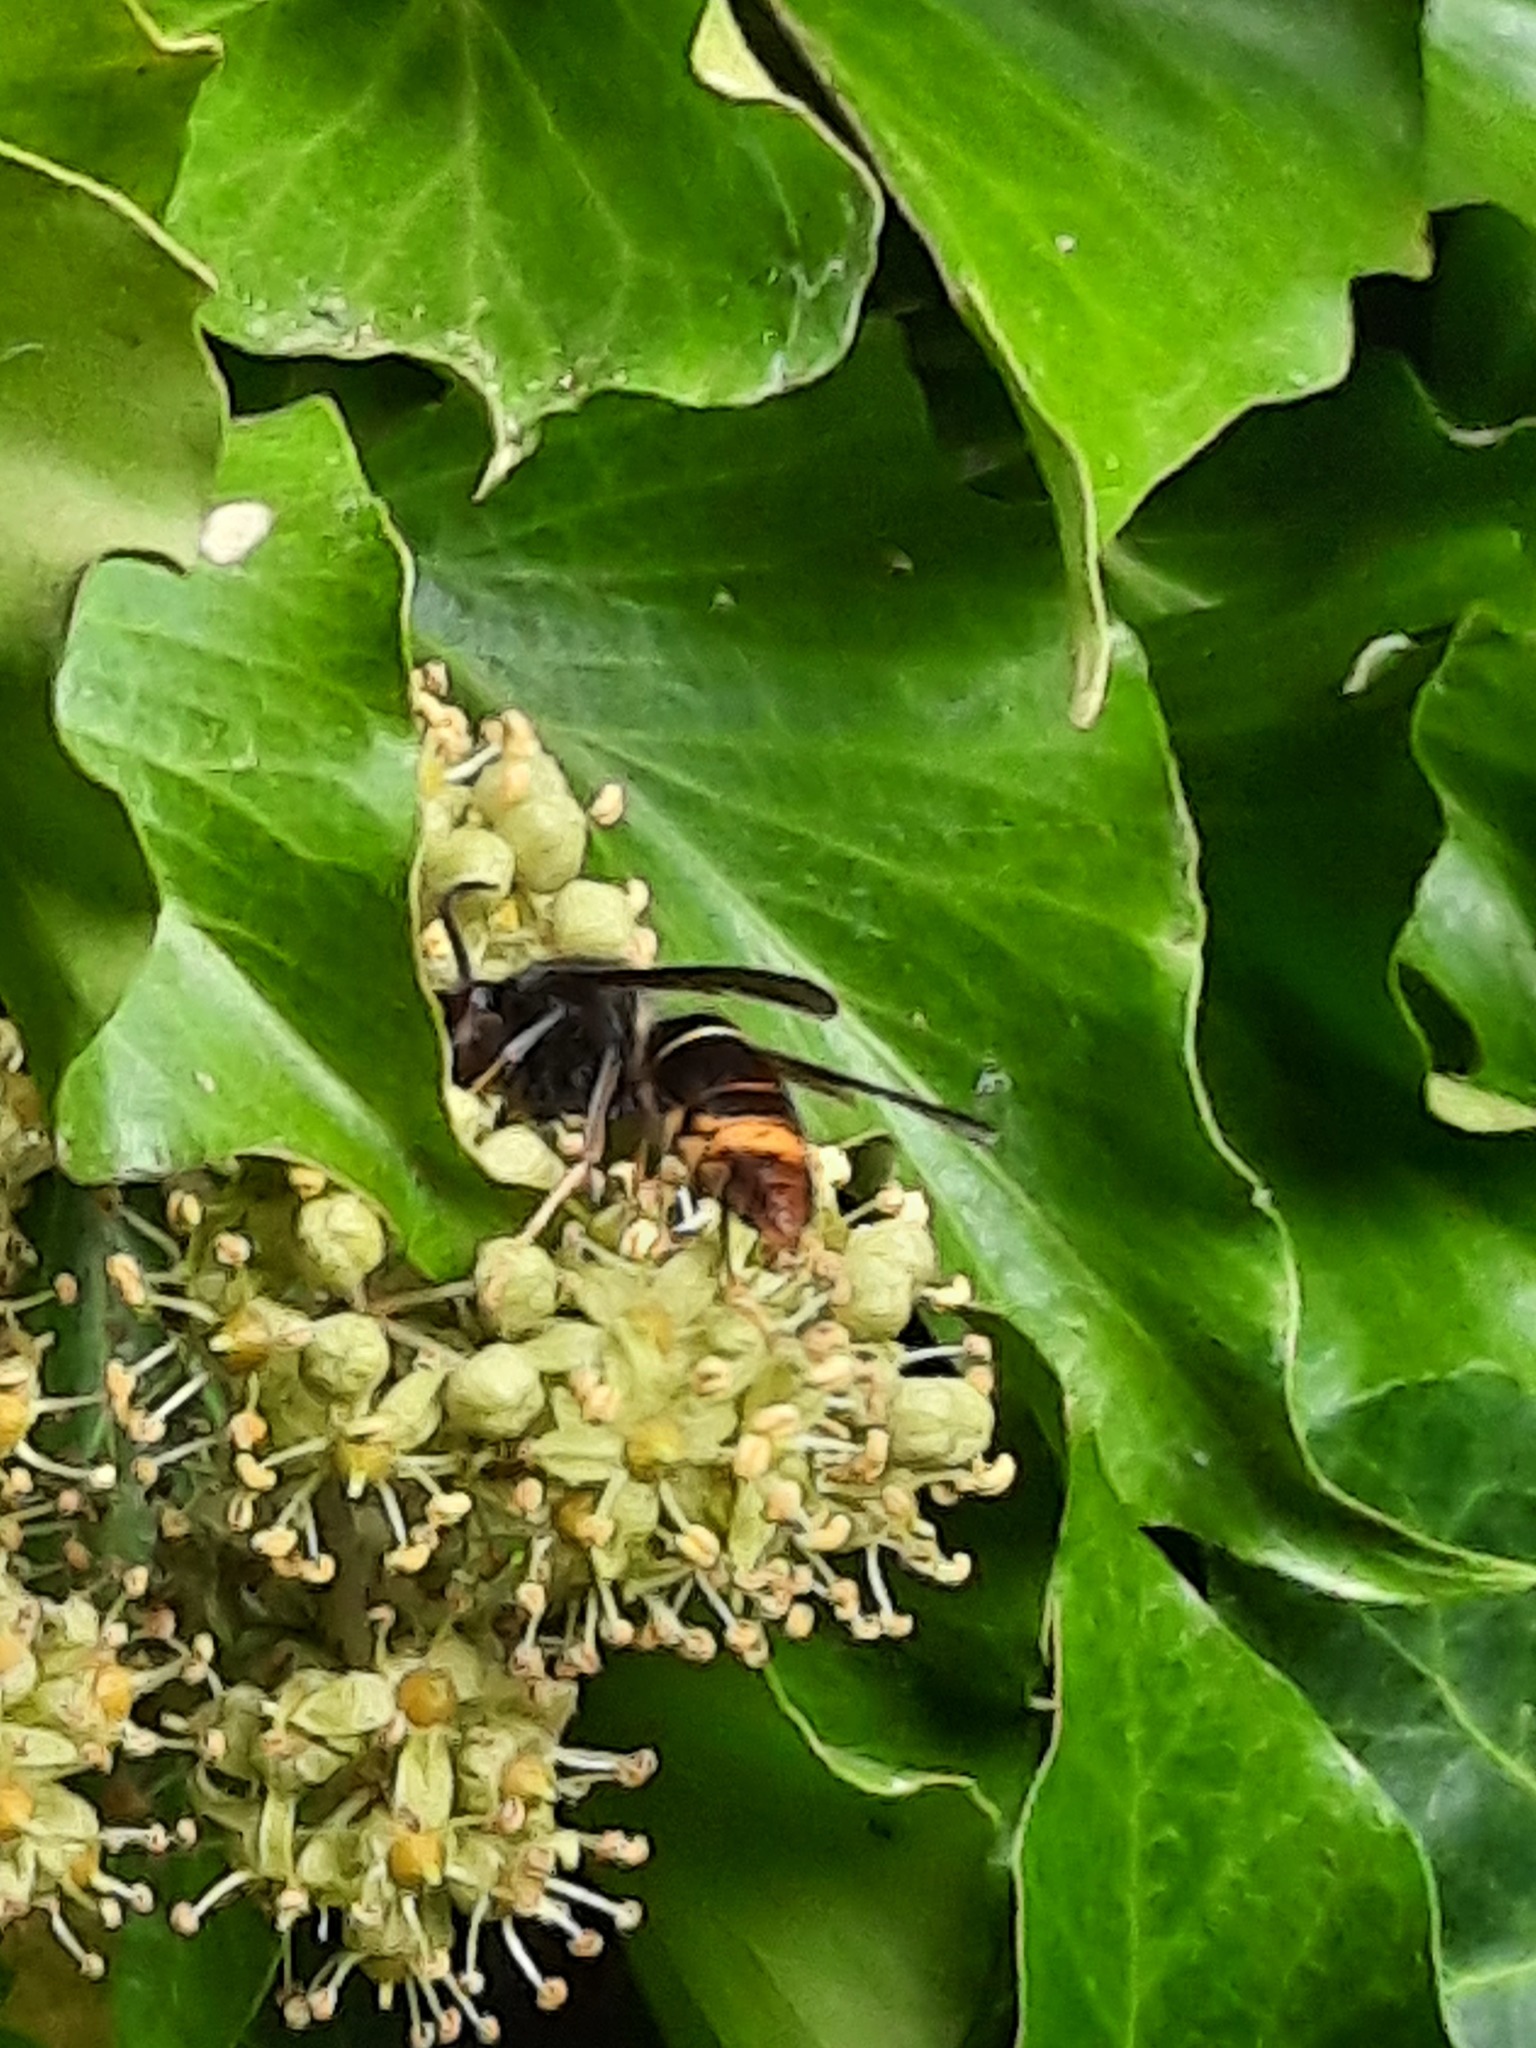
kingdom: Animalia
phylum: Arthropoda
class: Insecta
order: Hymenoptera
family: Vespidae
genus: Vespa
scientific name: Vespa velutina
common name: Asian hornet
